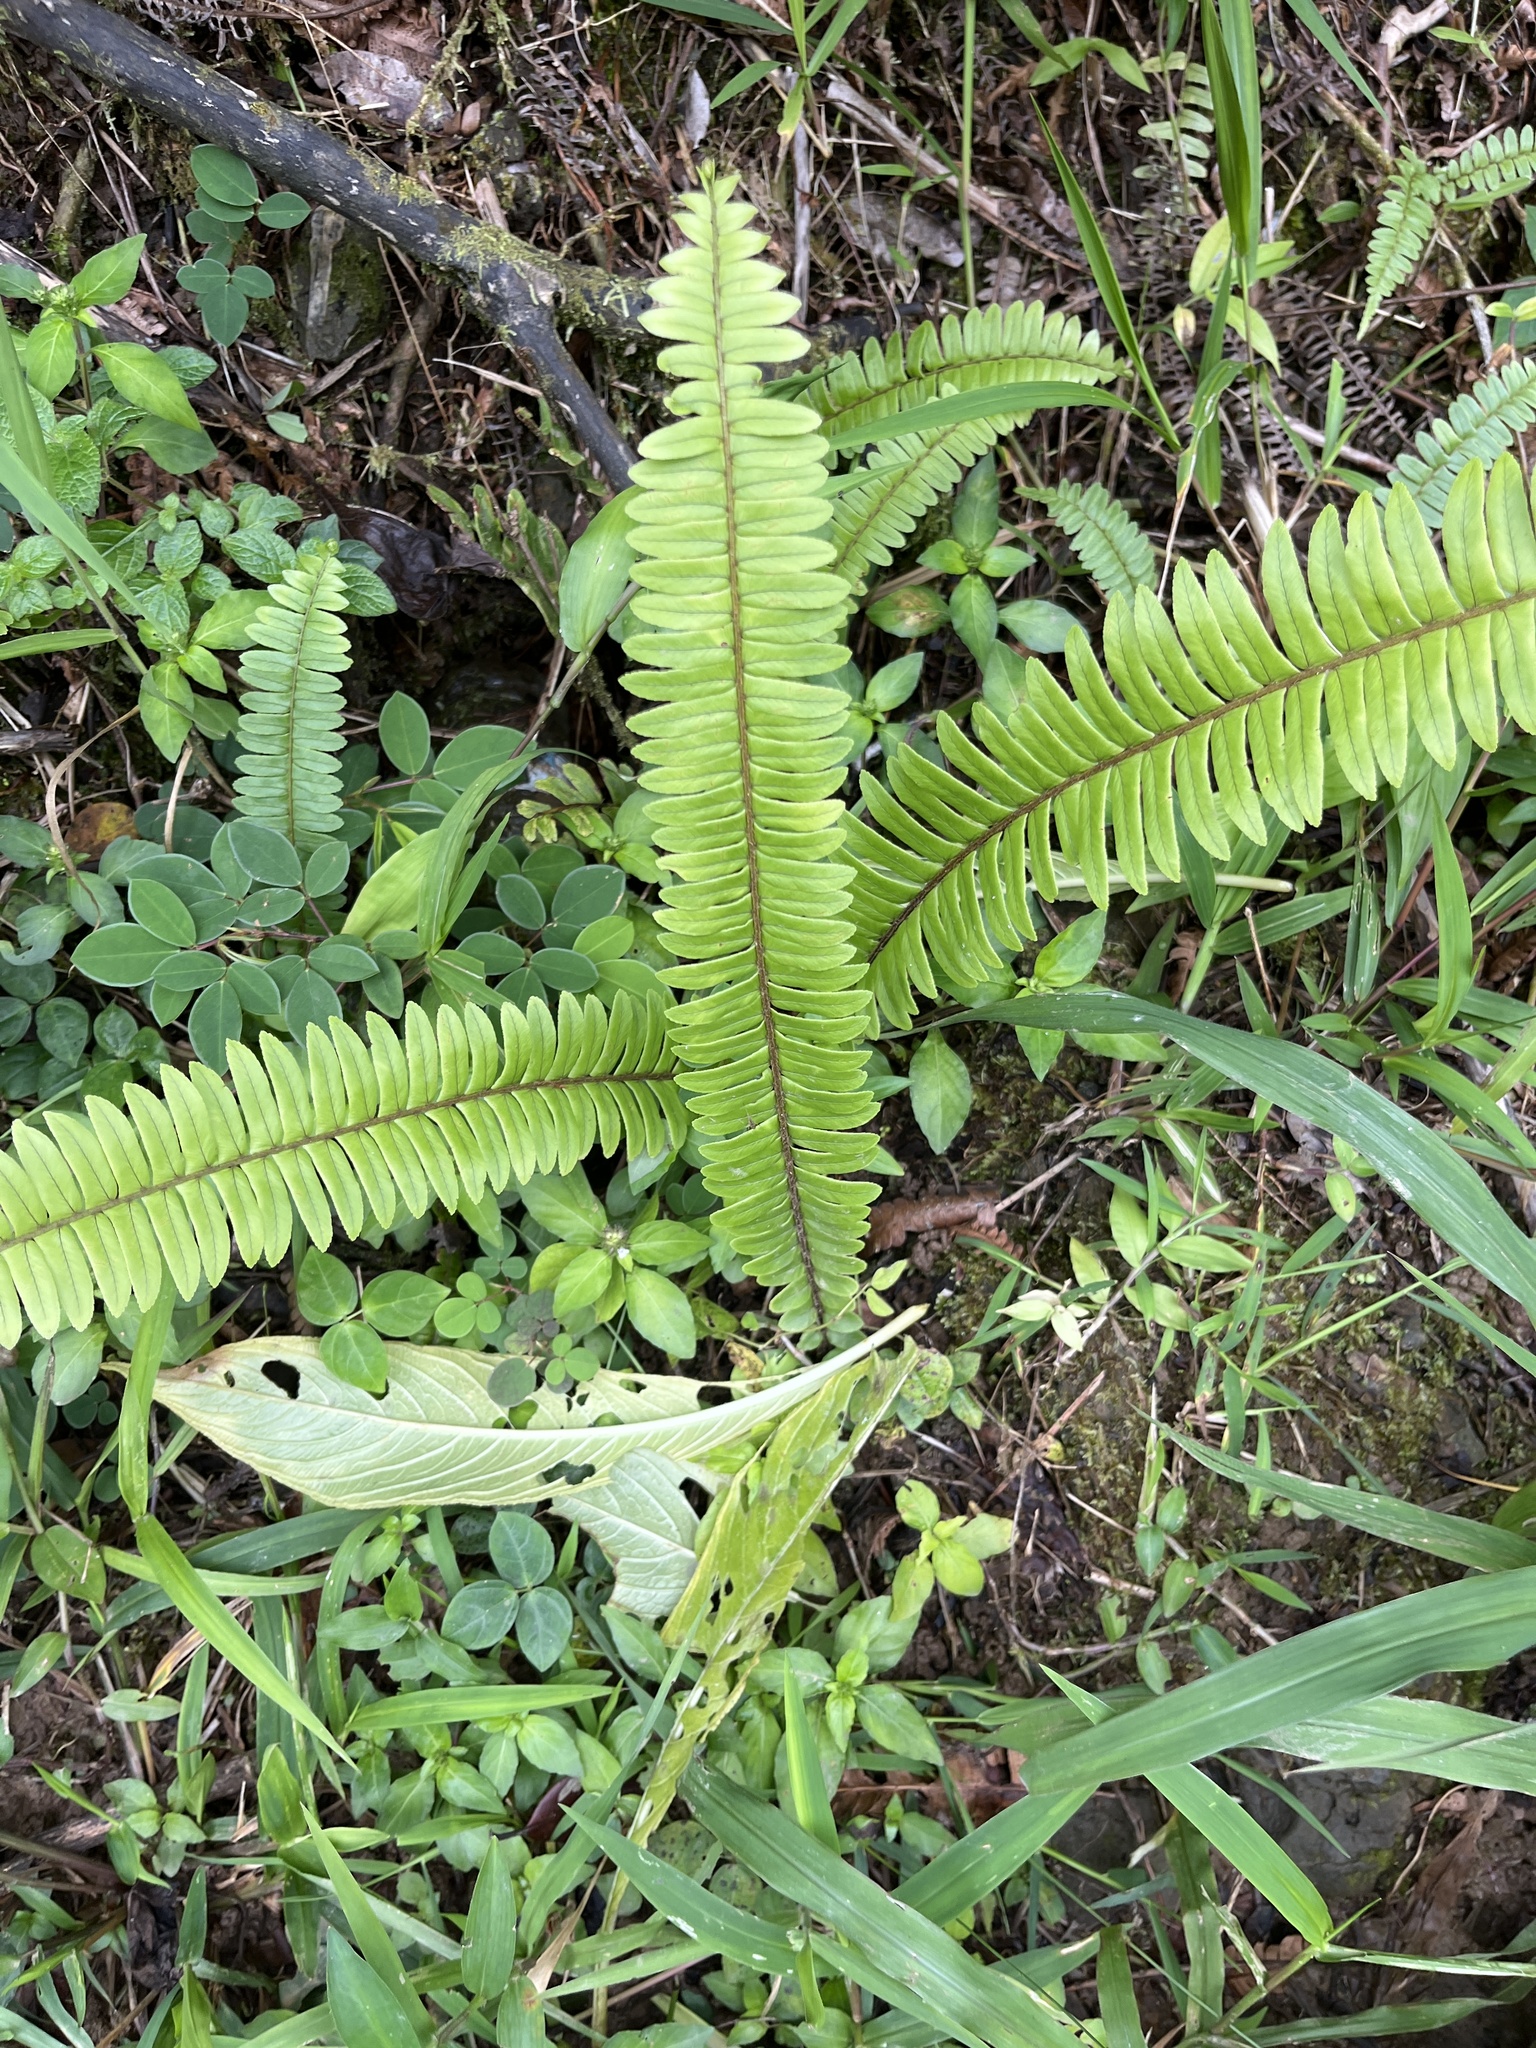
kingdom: Plantae
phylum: Tracheophyta
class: Polypodiopsida
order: Polypodiales
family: Nephrolepidaceae
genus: Nephrolepis
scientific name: Nephrolepis rivularis
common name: Streamside swordfern
